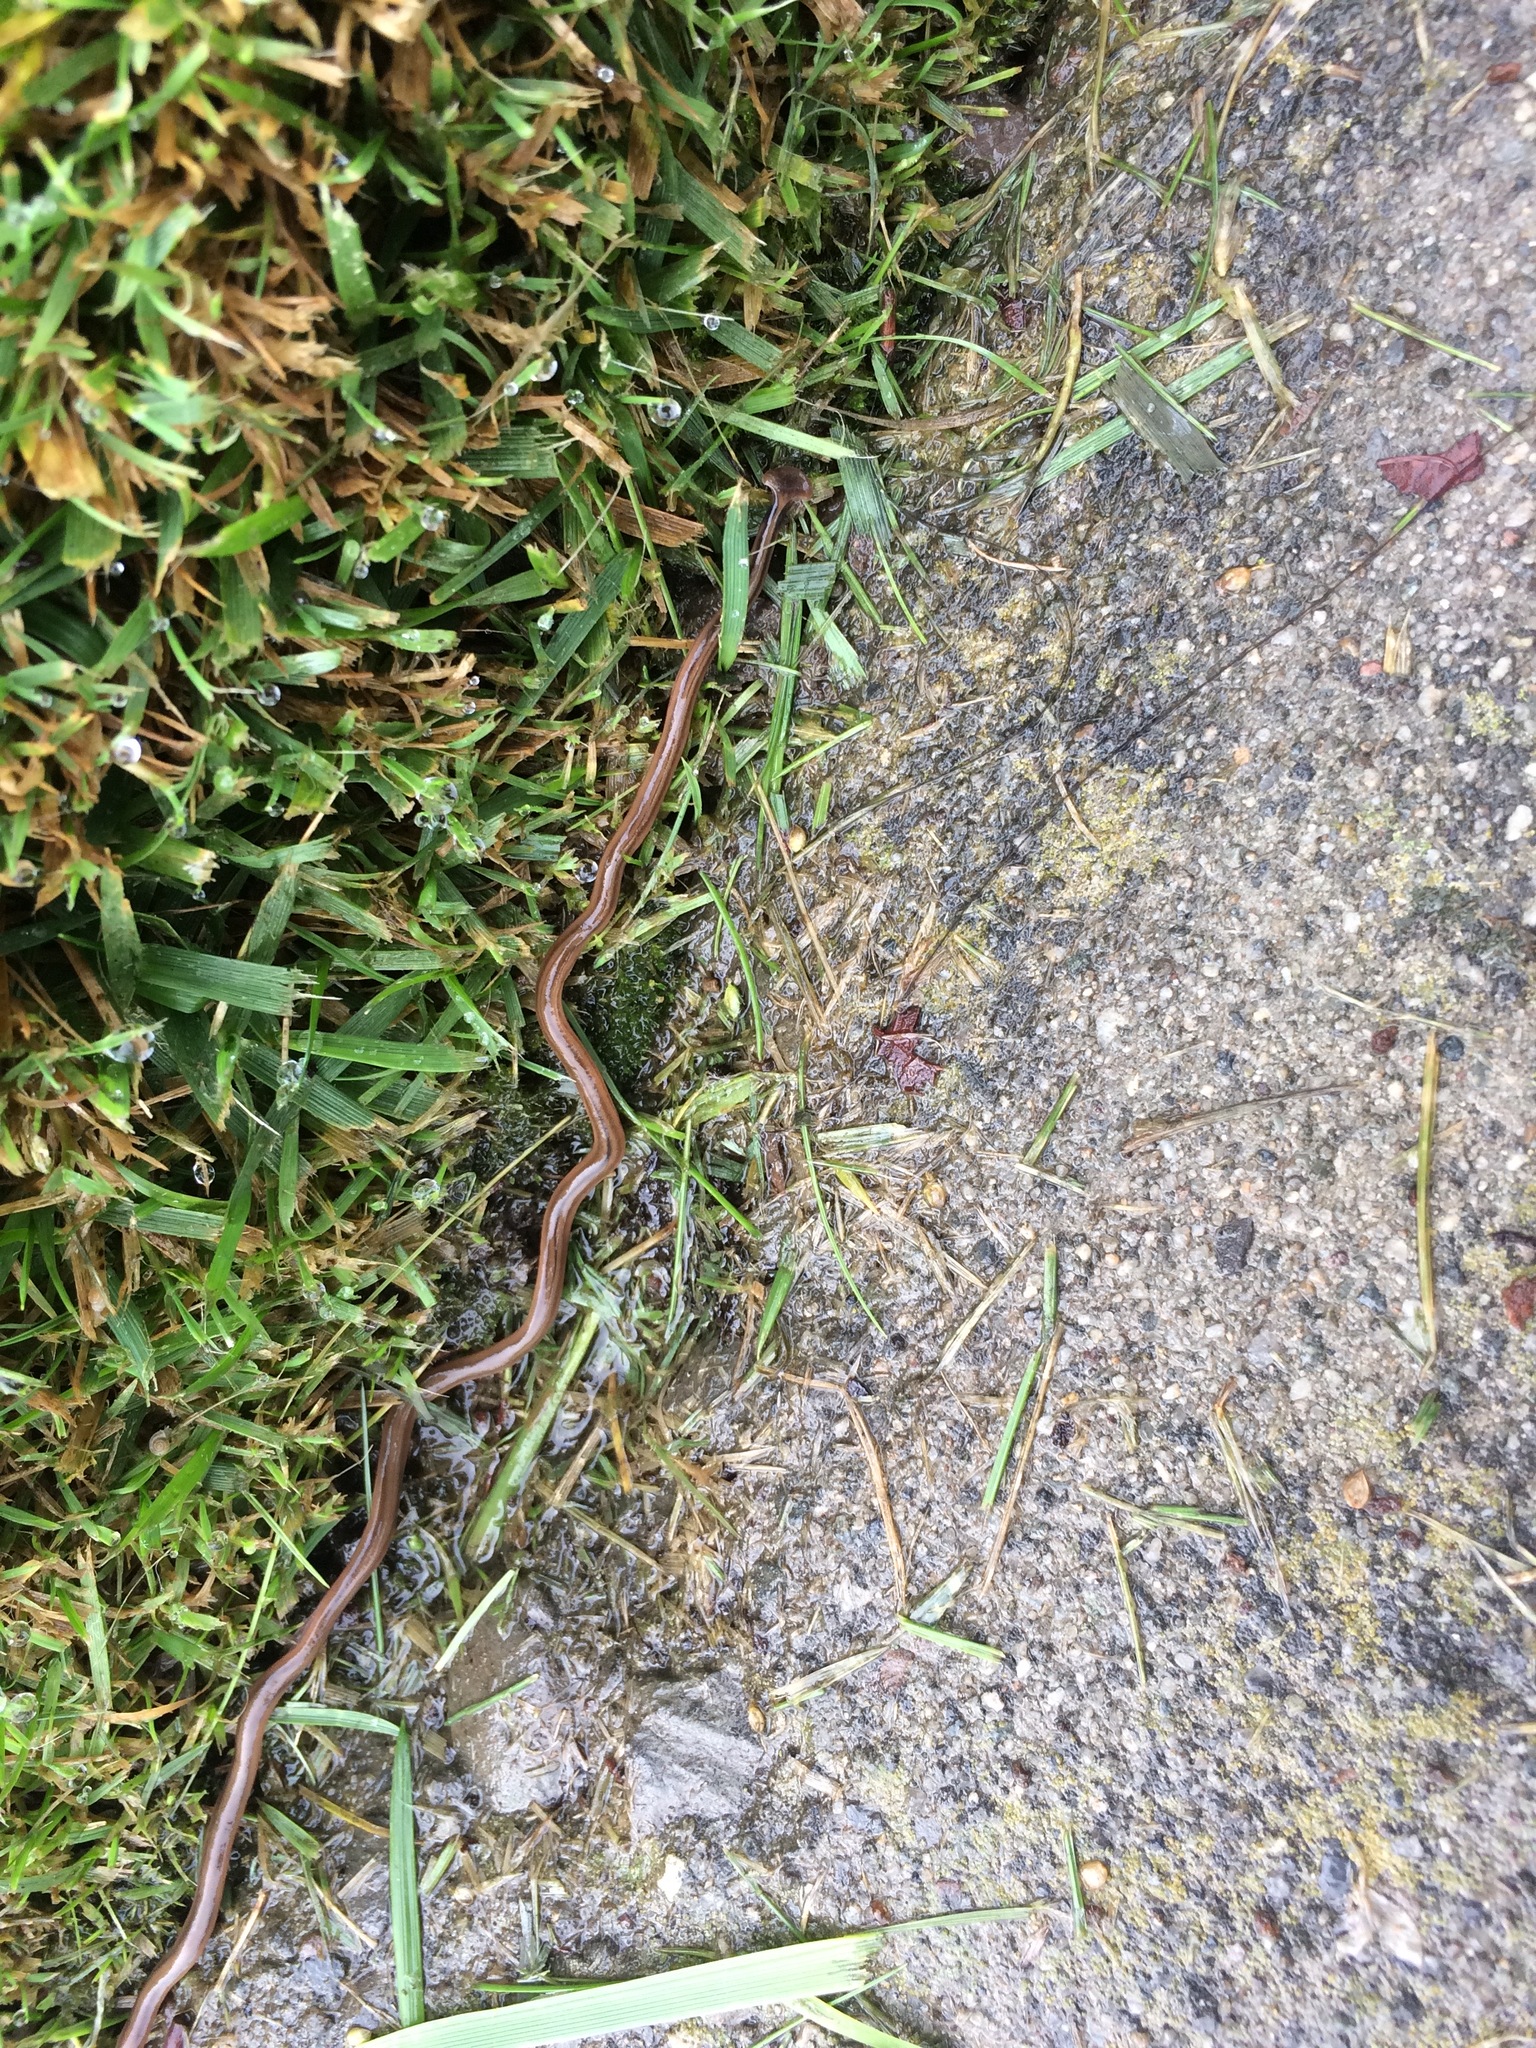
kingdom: Animalia
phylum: Platyhelminthes
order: Tricladida
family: Geoplanidae
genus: Bipalium
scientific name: Bipalium kewense
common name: Hammerhead flatworm
